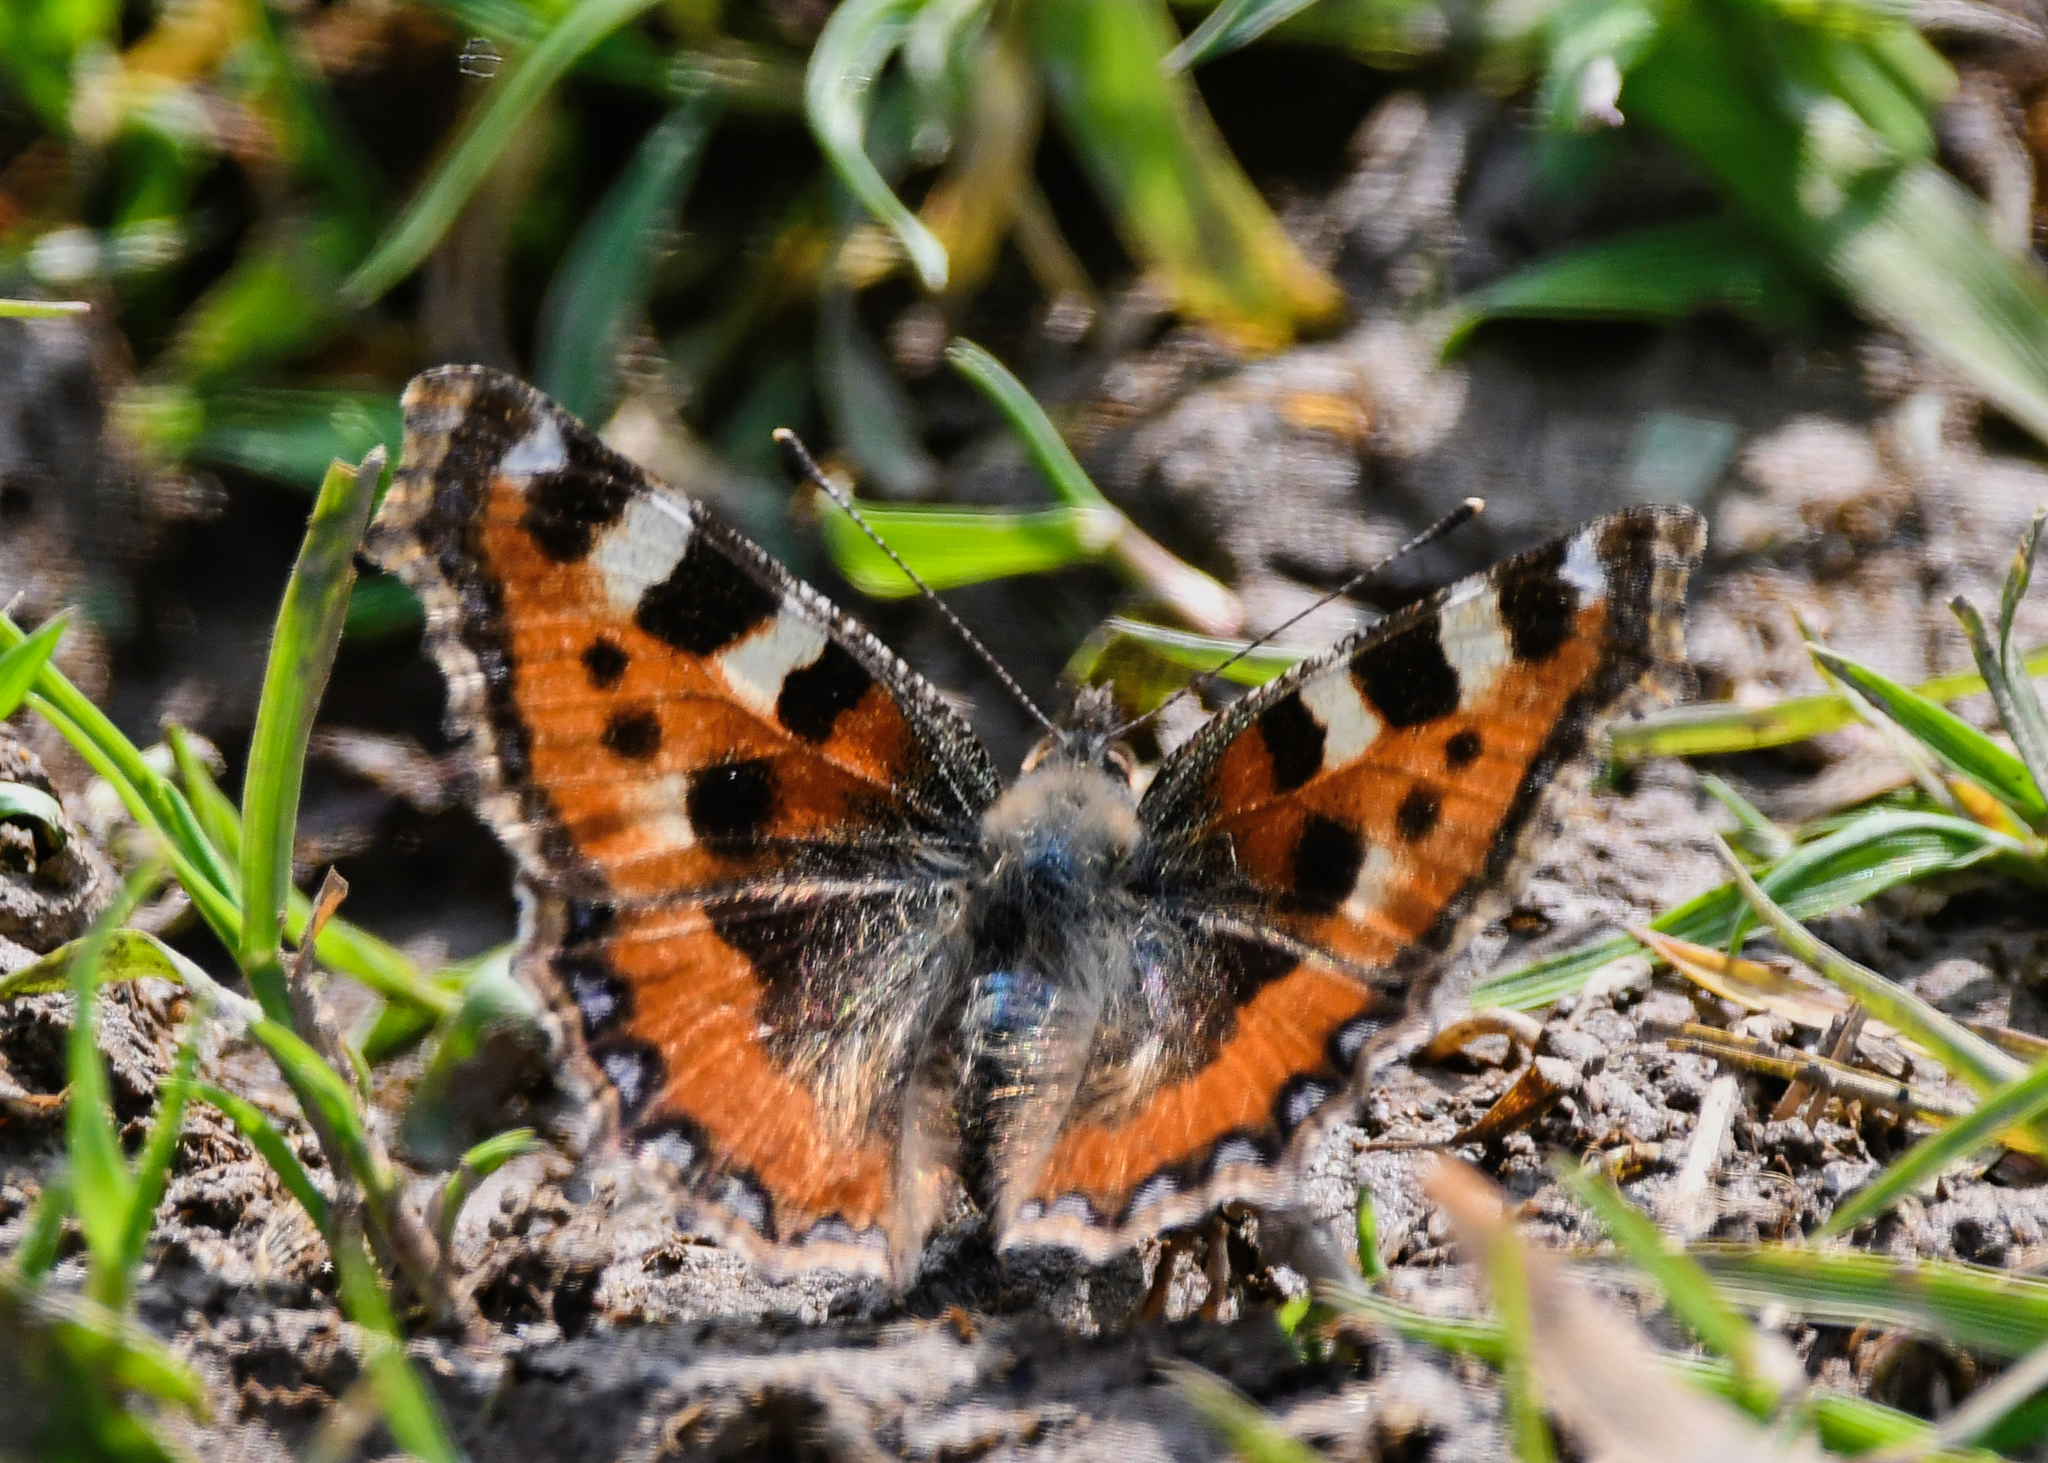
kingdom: Animalia
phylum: Arthropoda
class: Insecta
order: Lepidoptera
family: Nymphalidae
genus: Aglais
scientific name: Aglais urticae
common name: Small tortoiseshell
